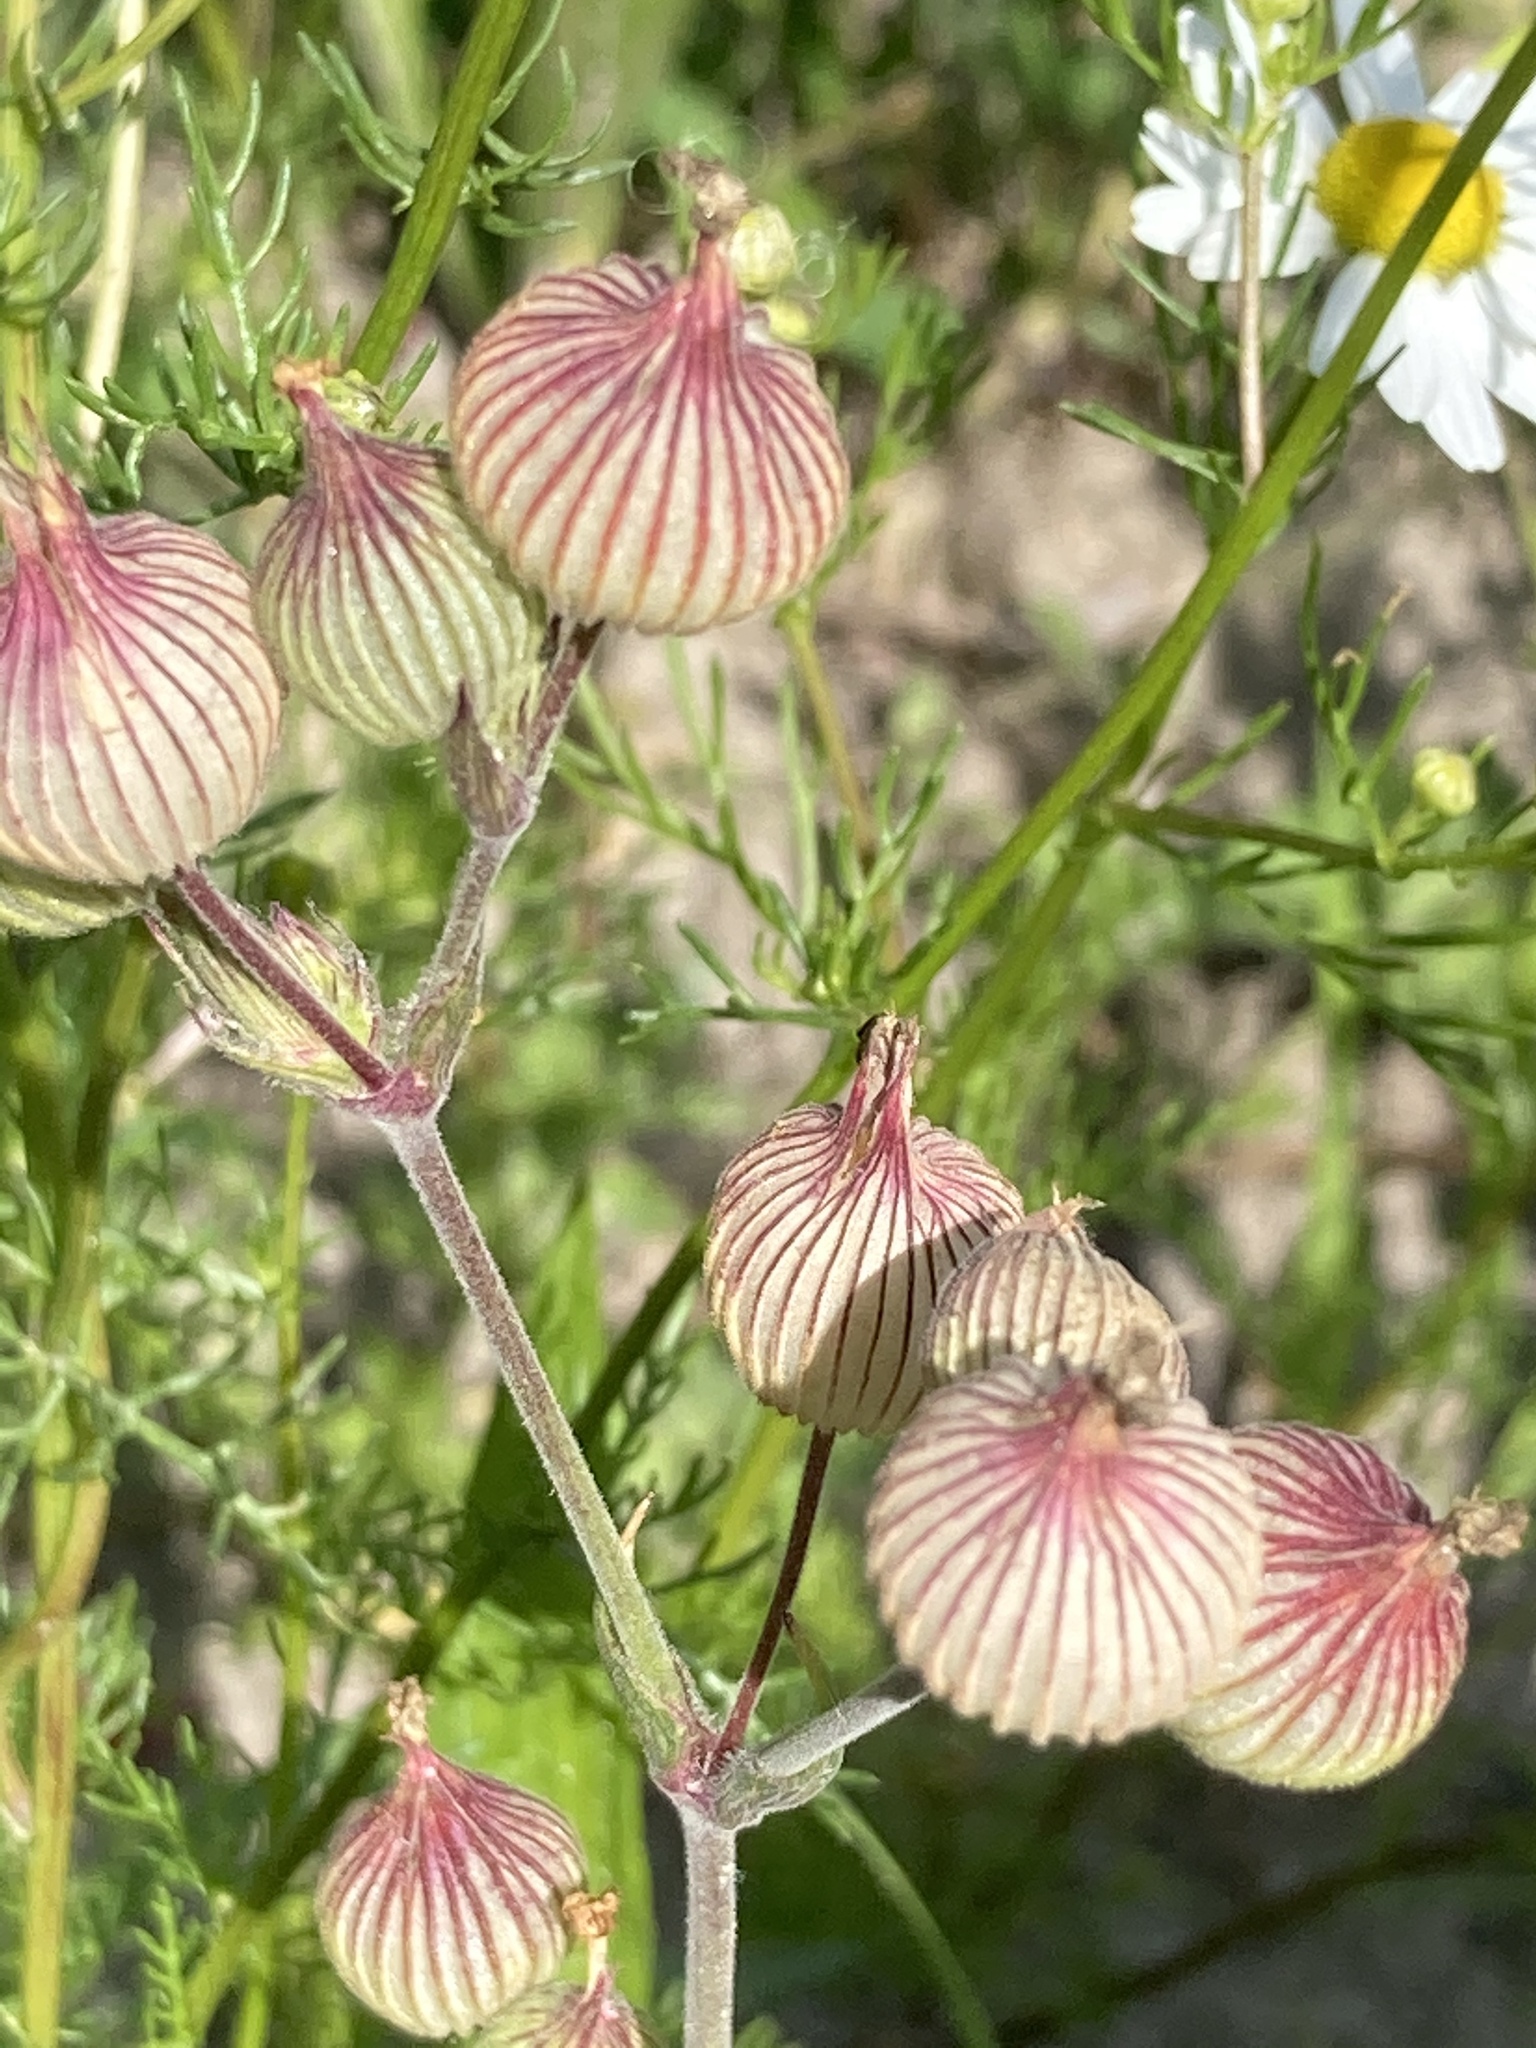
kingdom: Plantae
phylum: Tracheophyta
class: Magnoliopsida
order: Caryophyllales
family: Caryophyllaceae
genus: Silene
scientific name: Silene conica
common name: Sand catchfly
